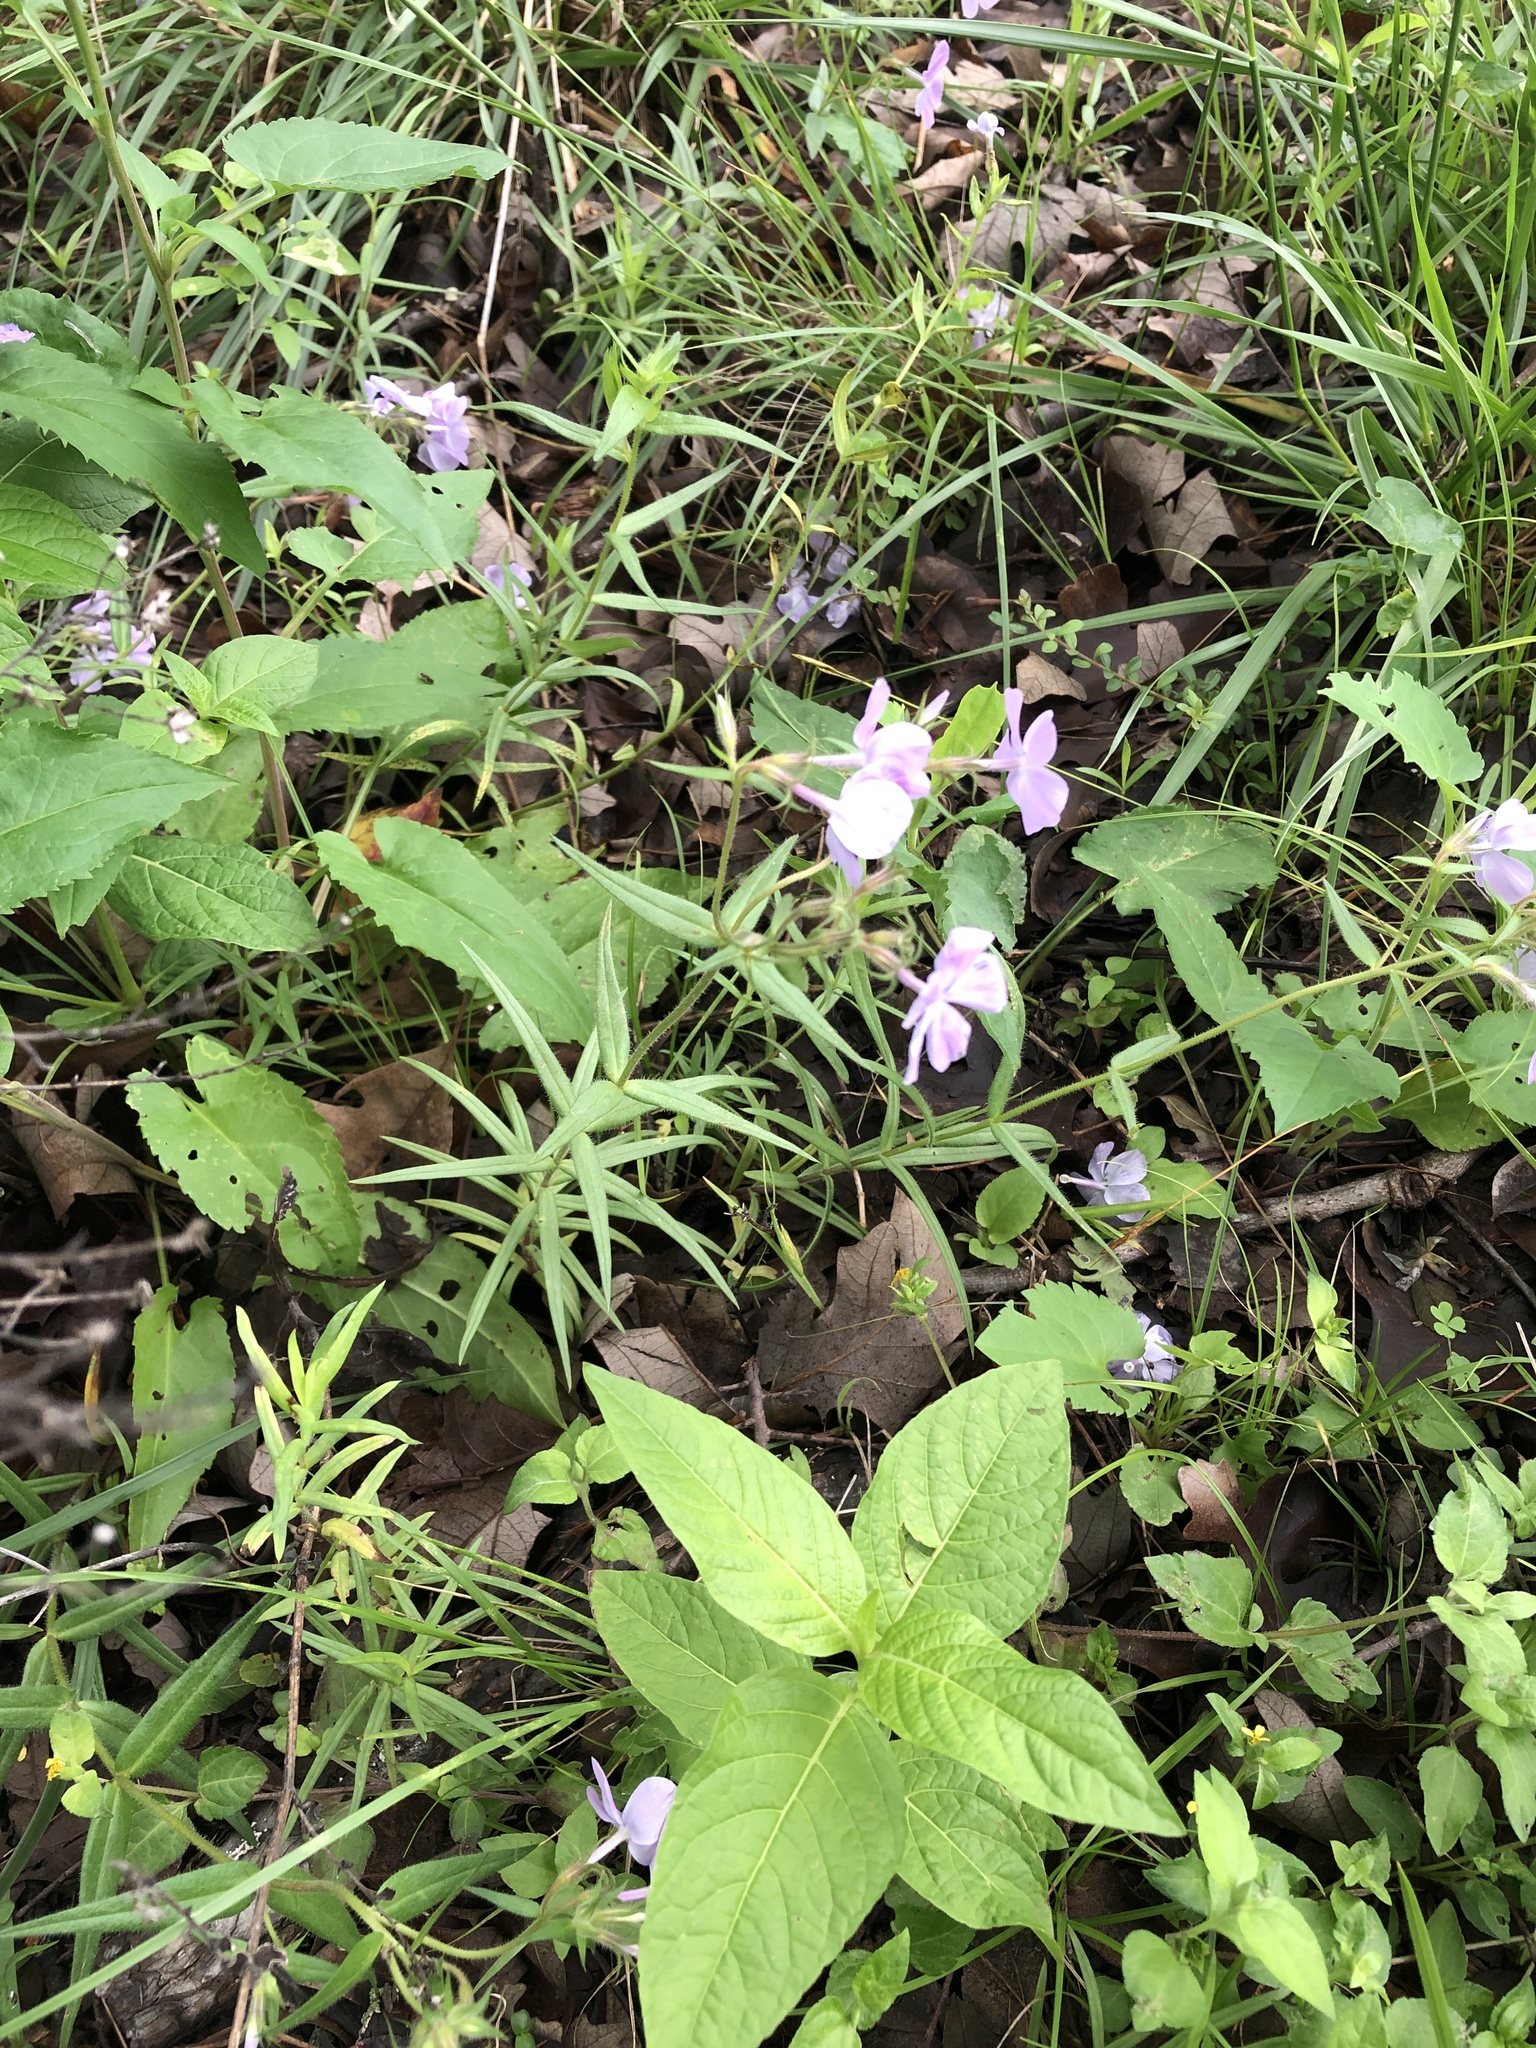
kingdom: Plantae
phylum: Tracheophyta
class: Magnoliopsida
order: Ericales
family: Polemoniaceae
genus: Phlox
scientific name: Phlox pilosa
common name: Prairie phlox
